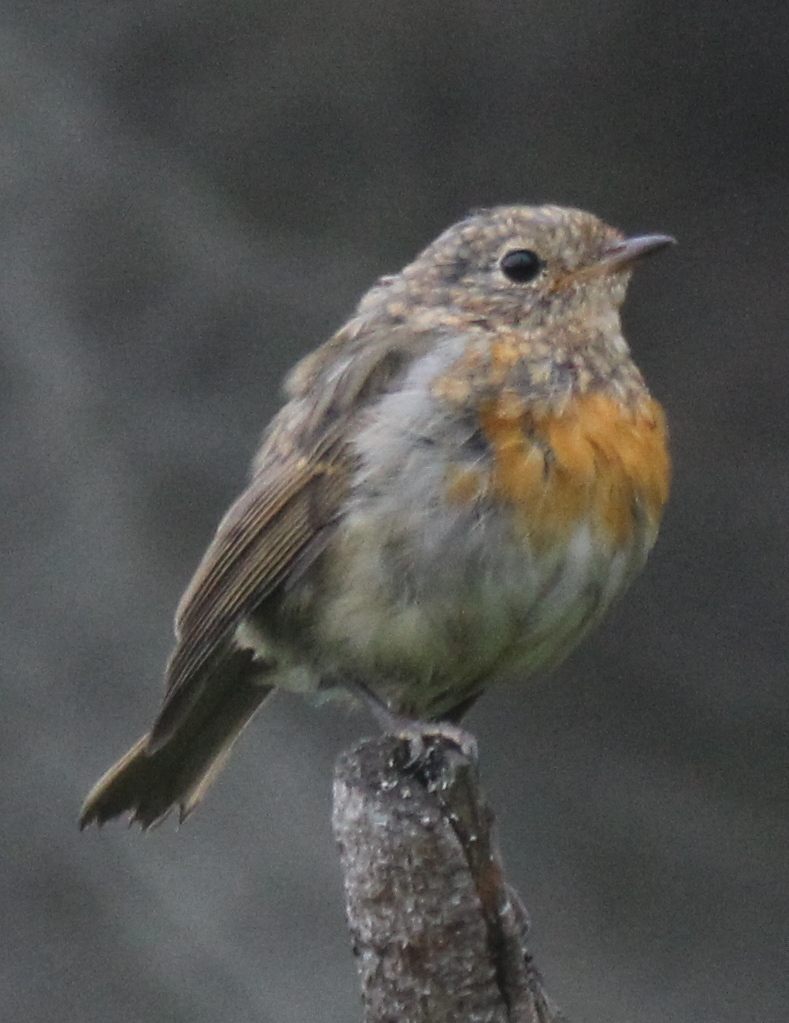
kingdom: Animalia
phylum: Chordata
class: Aves
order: Passeriformes
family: Muscicapidae
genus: Erithacus
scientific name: Erithacus rubecula
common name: European robin
